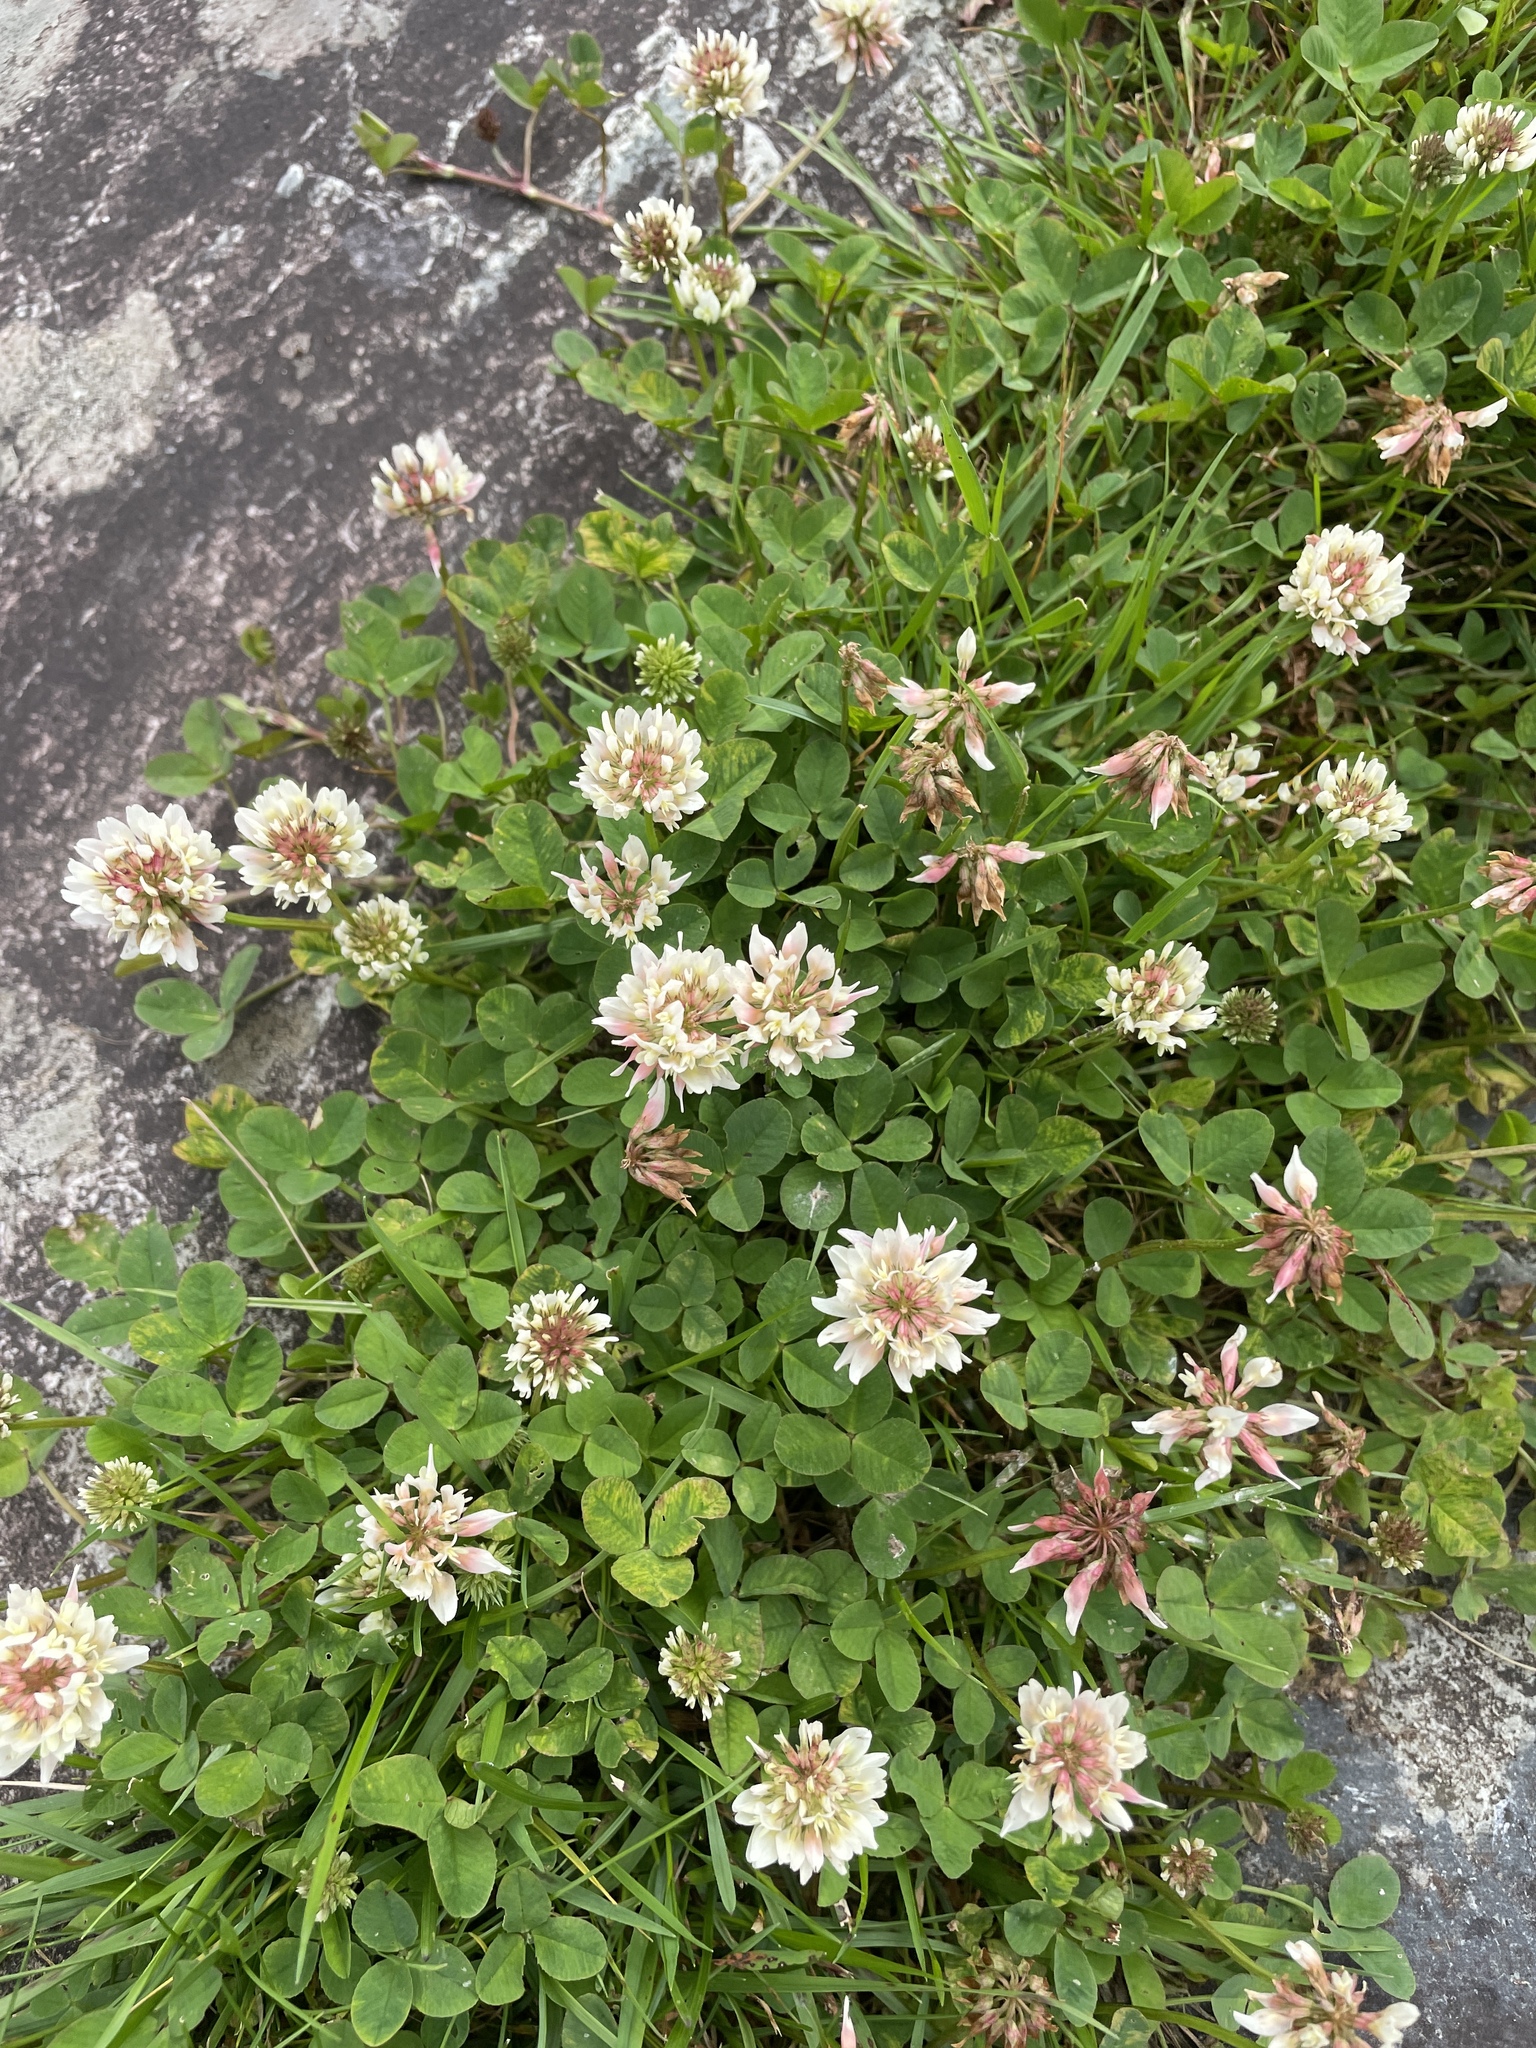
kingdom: Plantae
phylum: Tracheophyta
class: Magnoliopsida
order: Fabales
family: Fabaceae
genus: Trifolium
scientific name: Trifolium repens
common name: White clover
